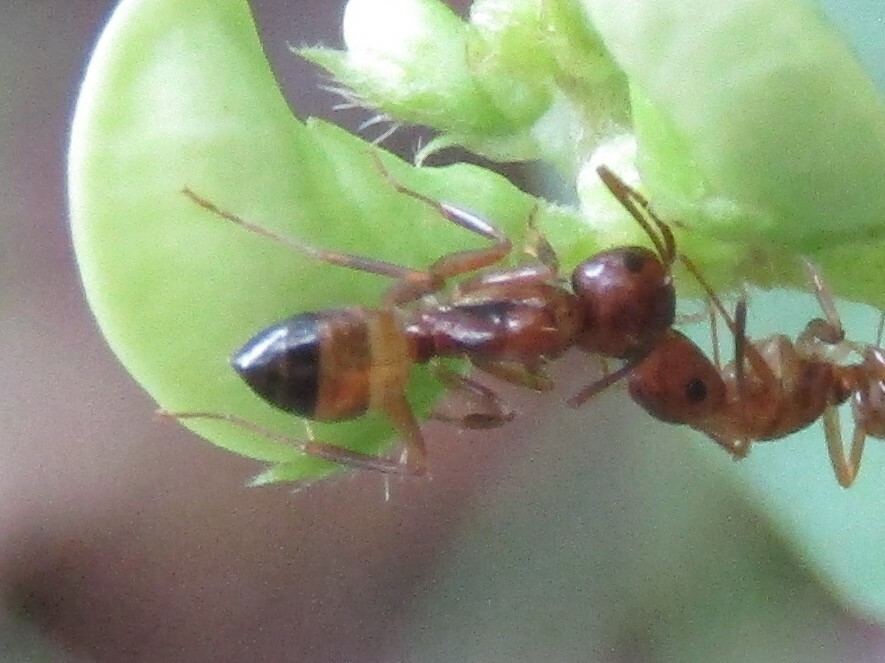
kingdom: Animalia
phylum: Arthropoda
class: Insecta
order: Hymenoptera
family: Formicidae
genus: Camponotus
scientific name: Camponotus snellingi
